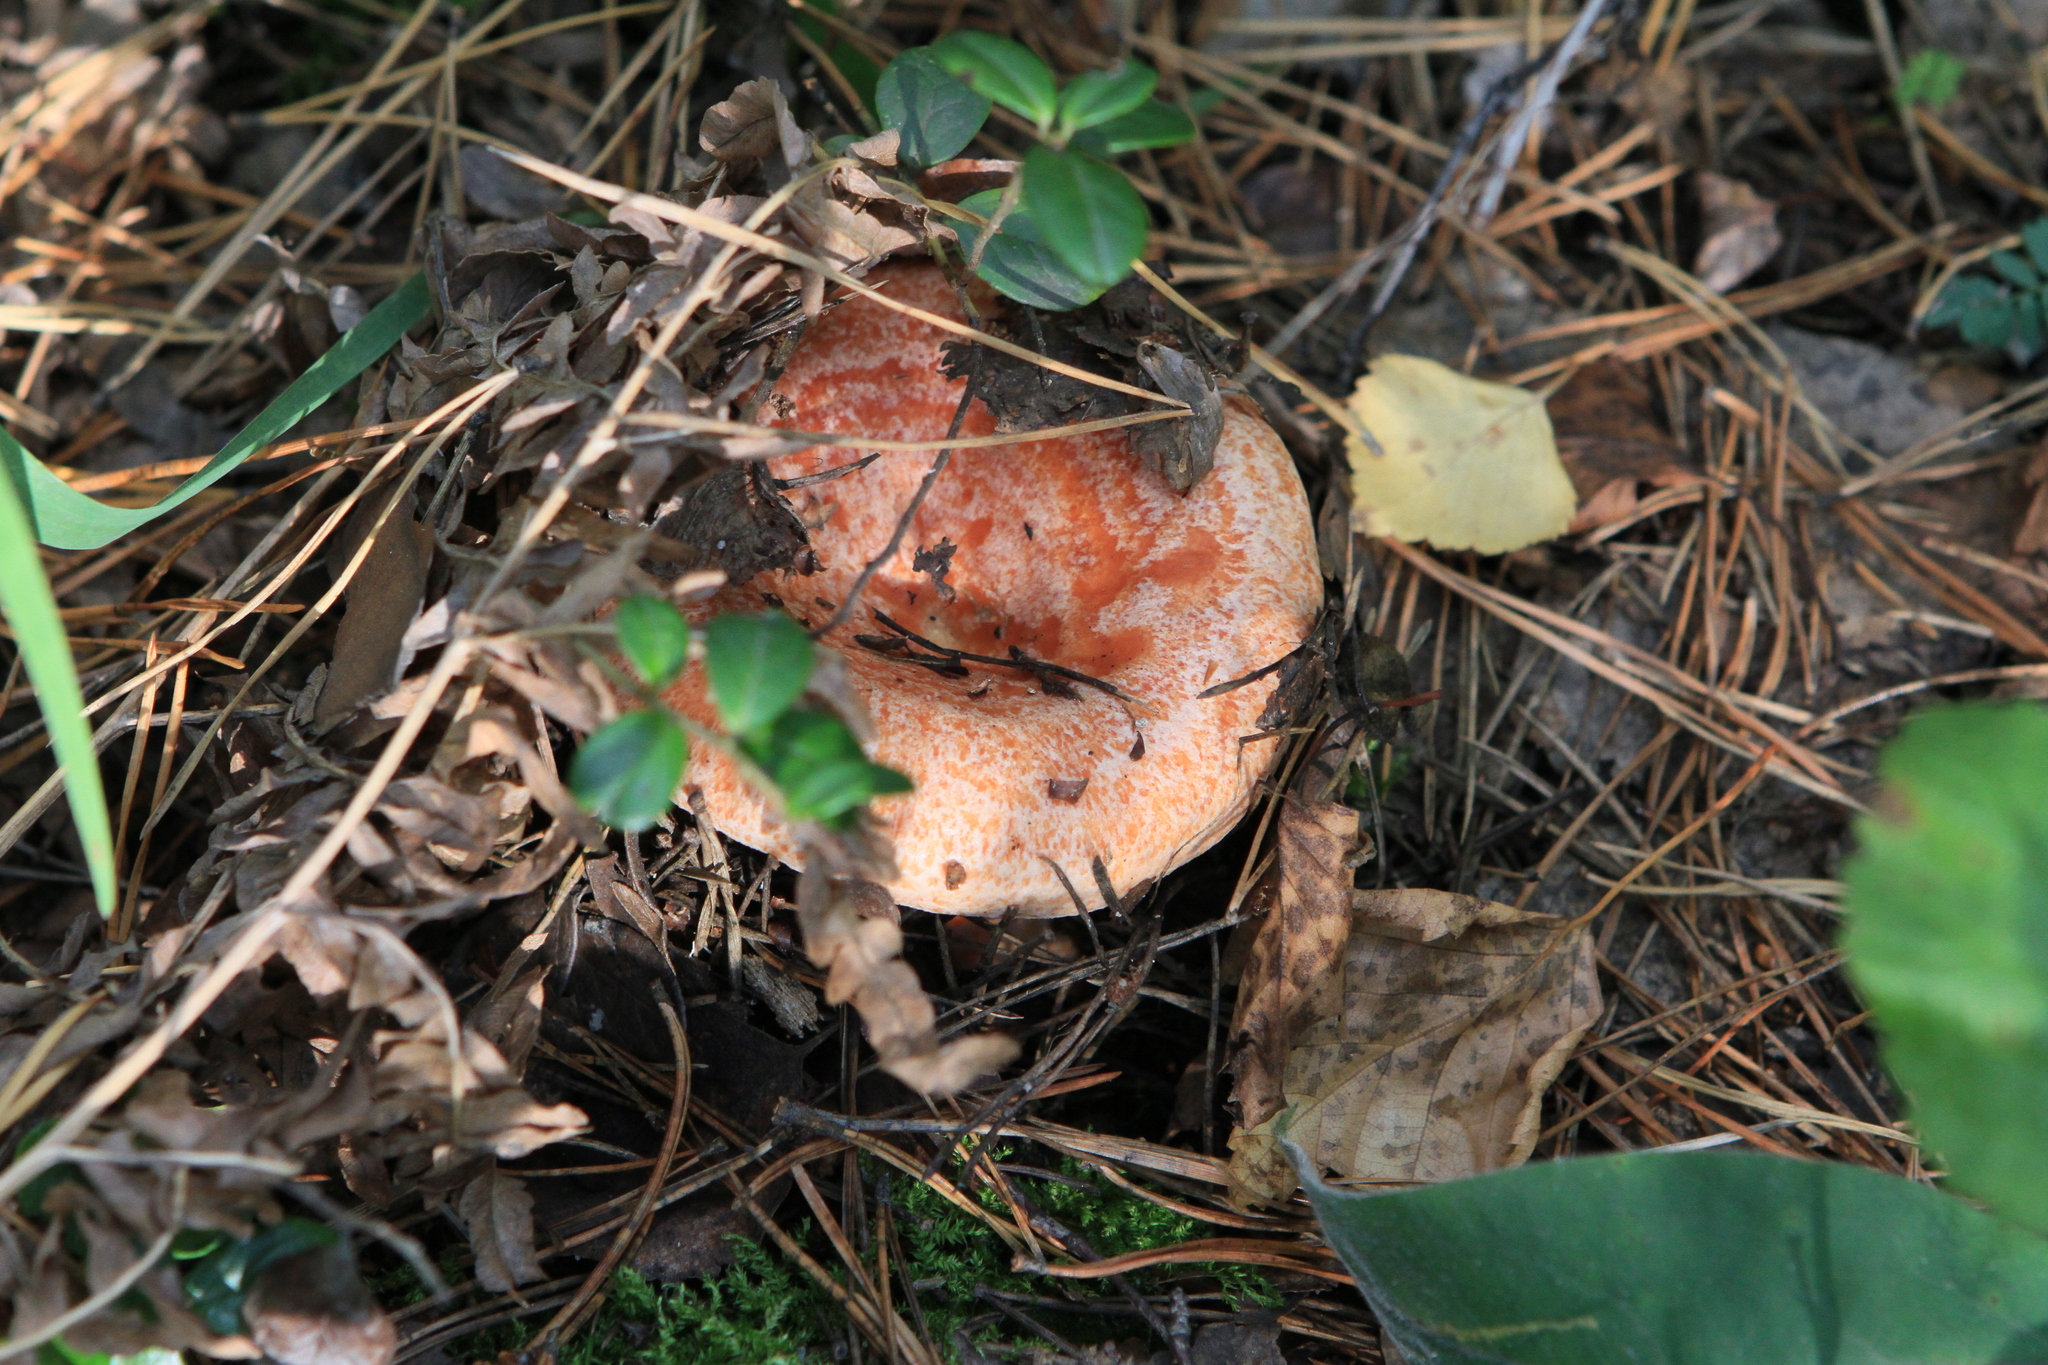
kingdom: Fungi
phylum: Basidiomycota
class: Agaricomycetes
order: Russulales
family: Russulaceae
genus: Lactarius
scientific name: Lactarius deliciosus
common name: Saffron milk-cap
